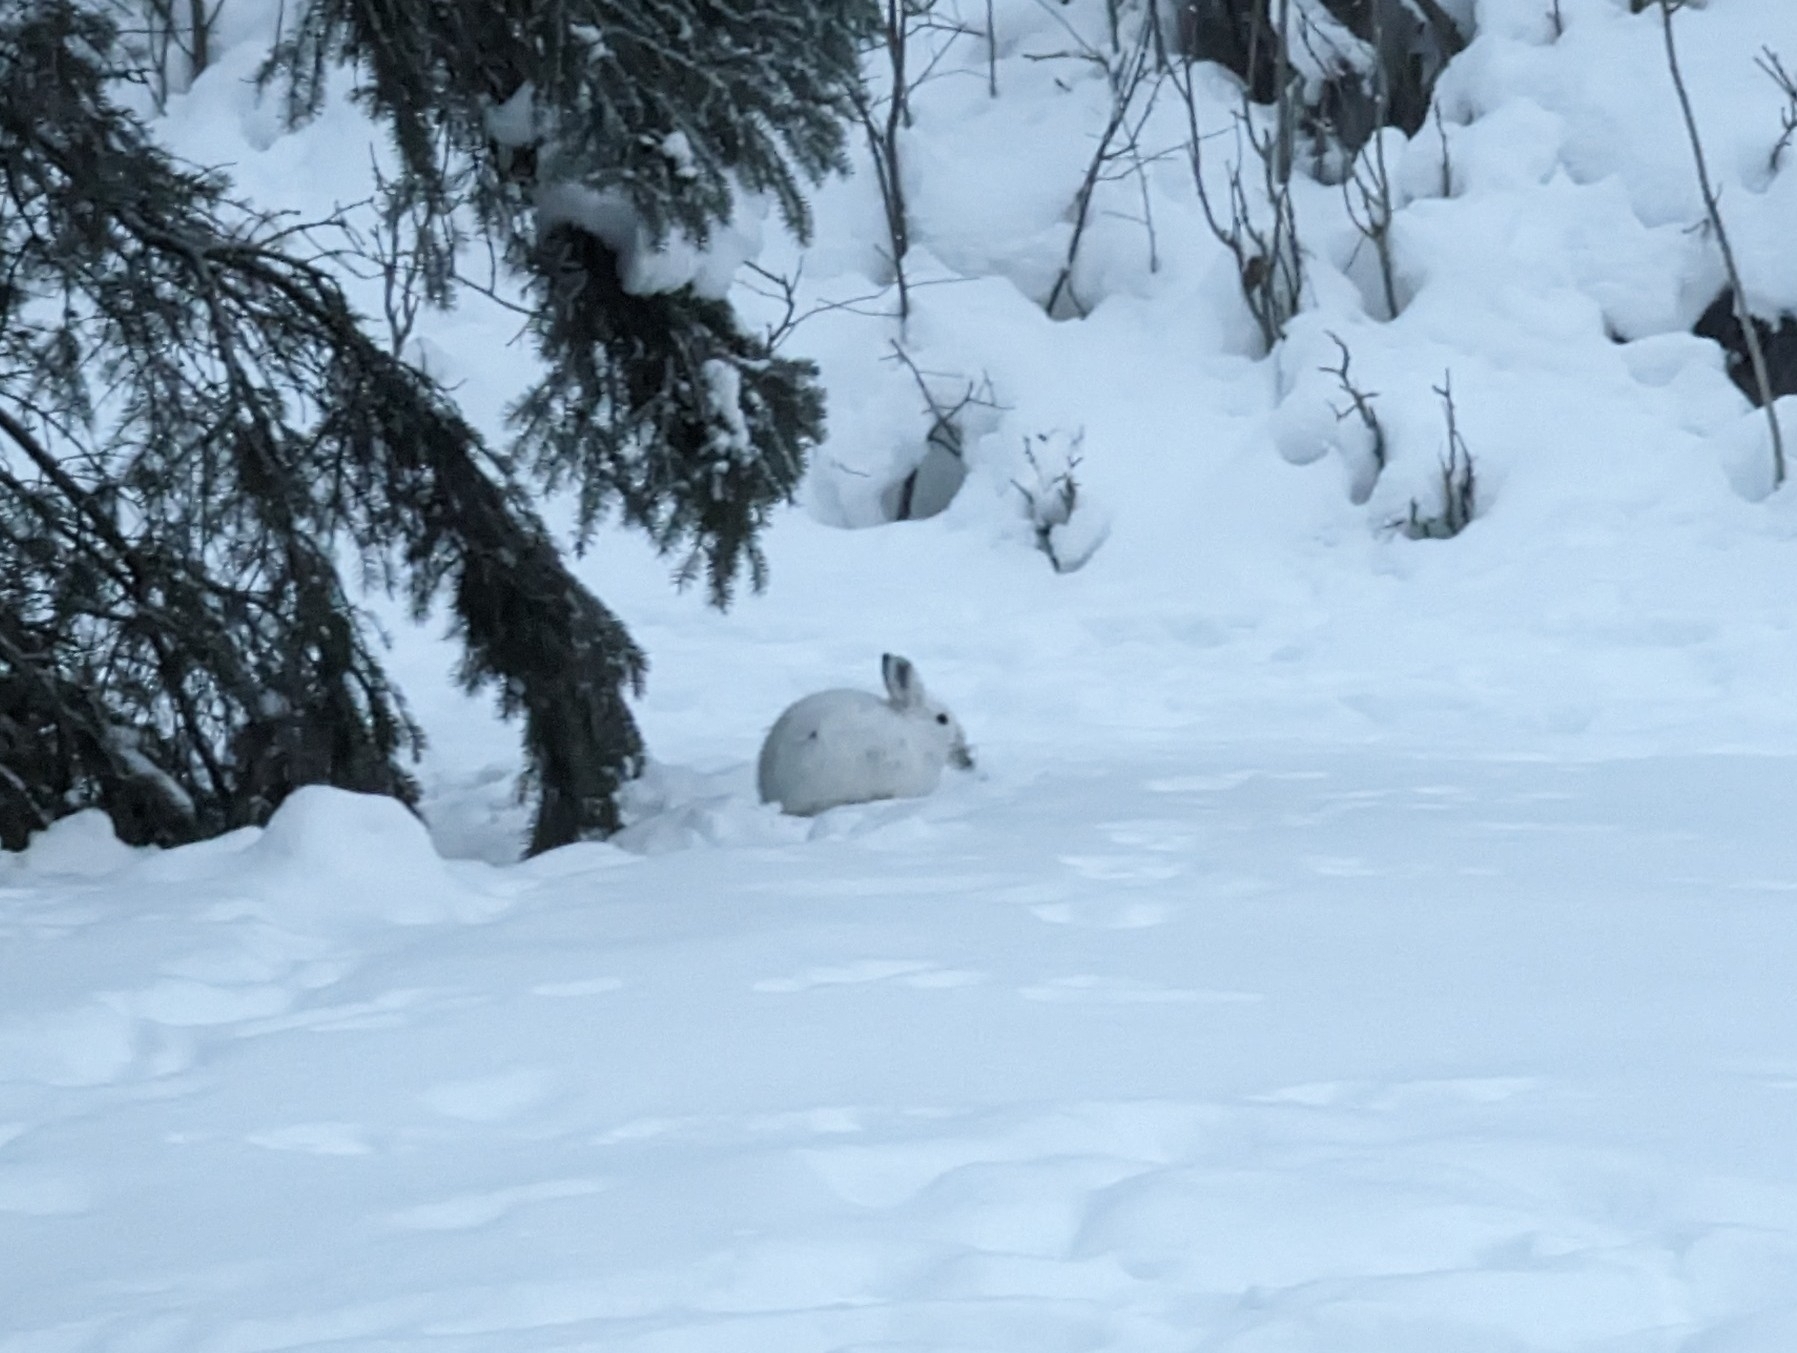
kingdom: Animalia
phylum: Chordata
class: Mammalia
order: Lagomorpha
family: Leporidae
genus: Lepus
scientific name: Lepus americanus
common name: Snowshoe hare
